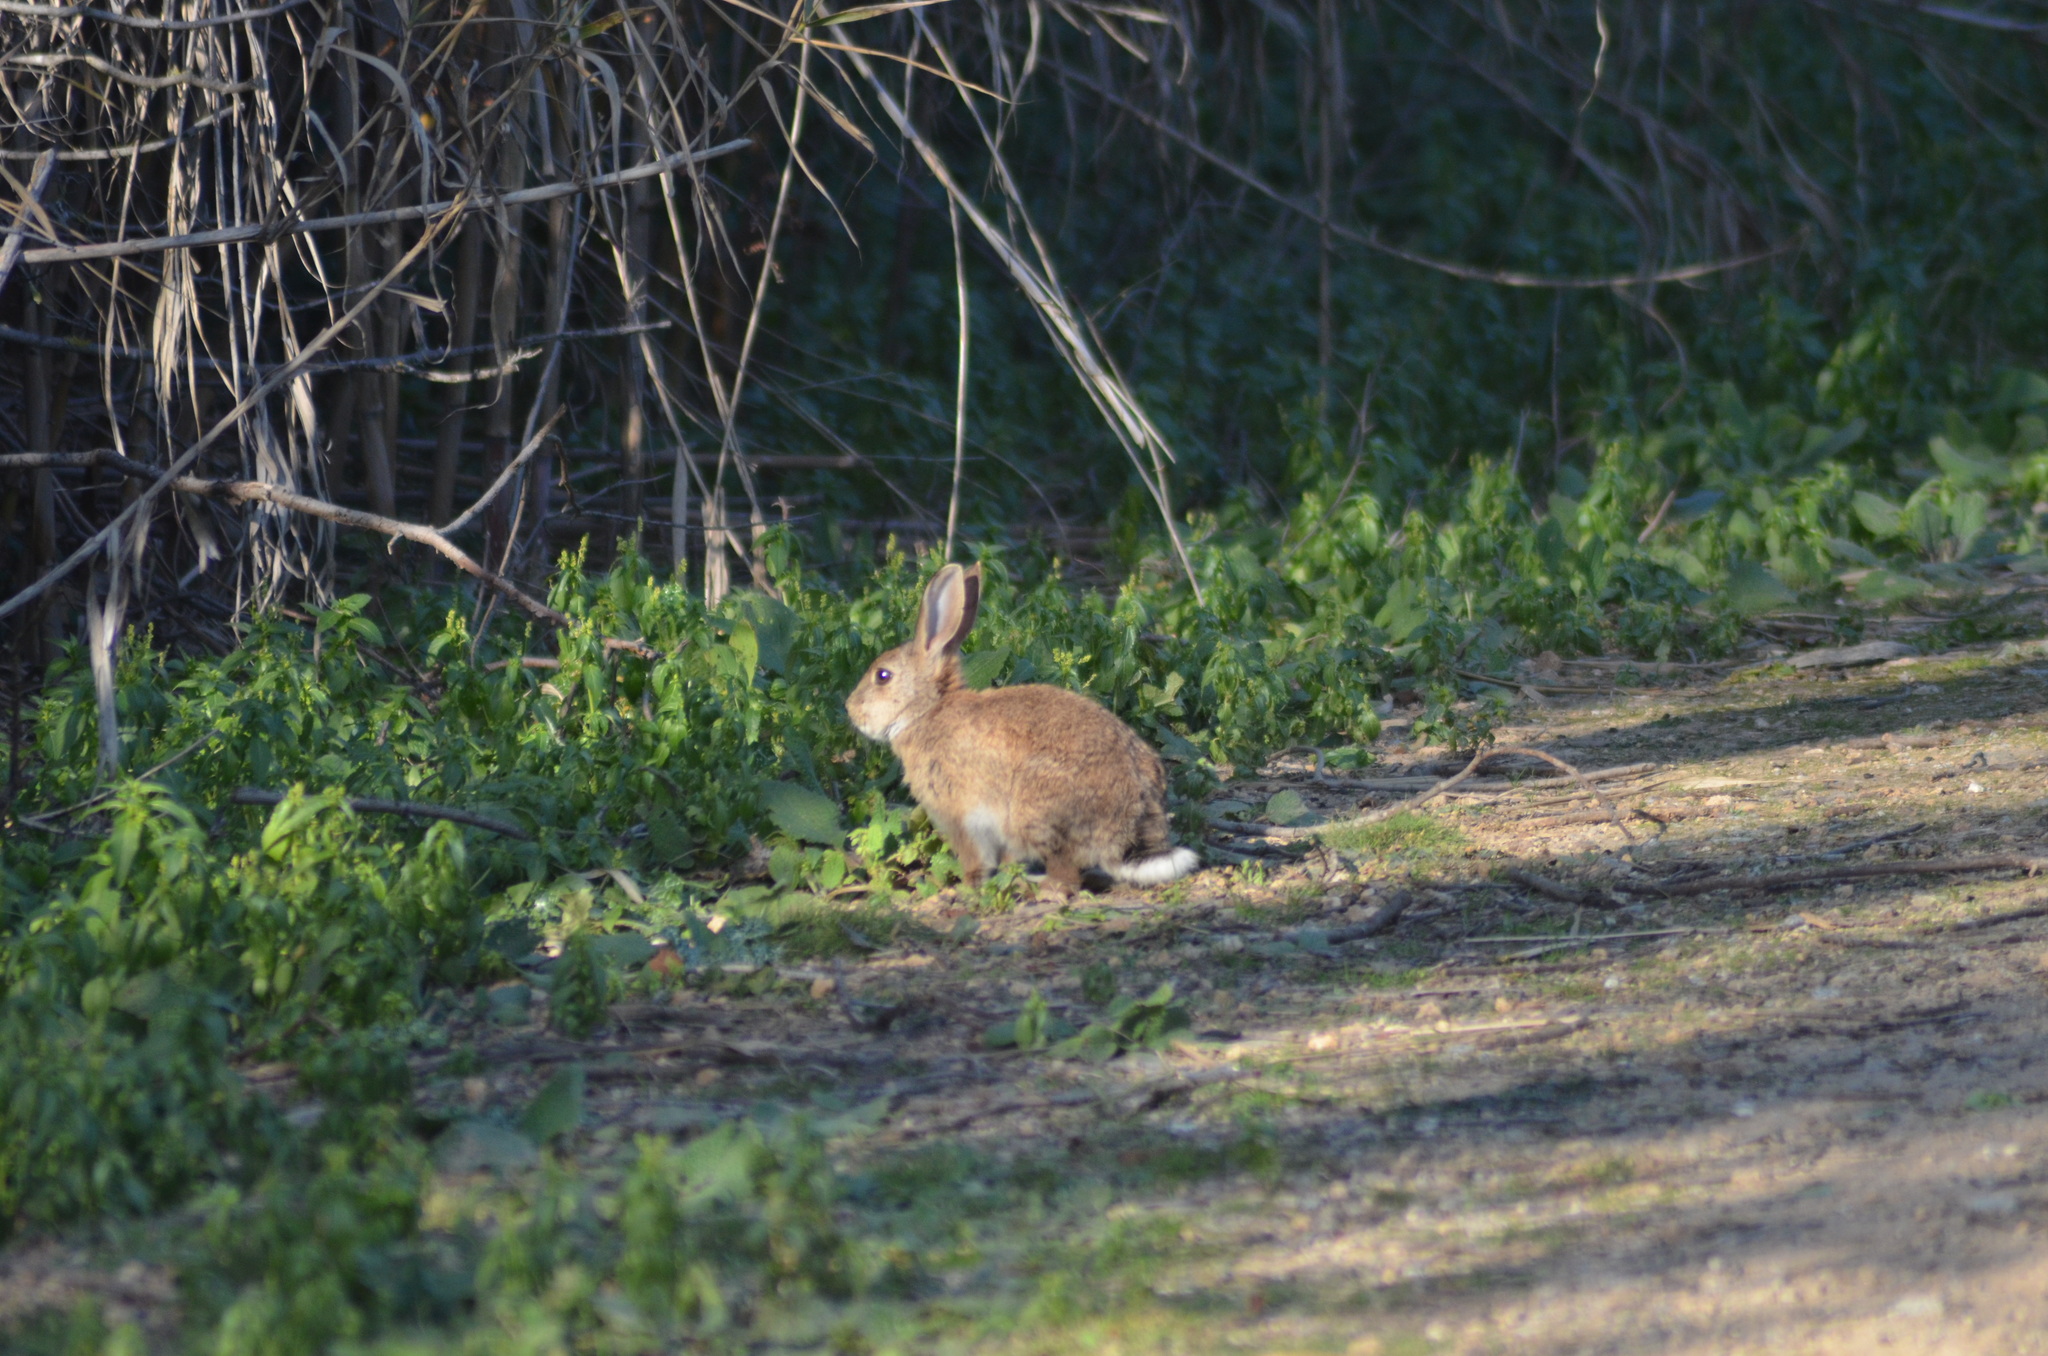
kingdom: Animalia
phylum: Chordata
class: Mammalia
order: Lagomorpha
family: Leporidae
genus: Oryctolagus
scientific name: Oryctolagus cuniculus
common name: European rabbit
